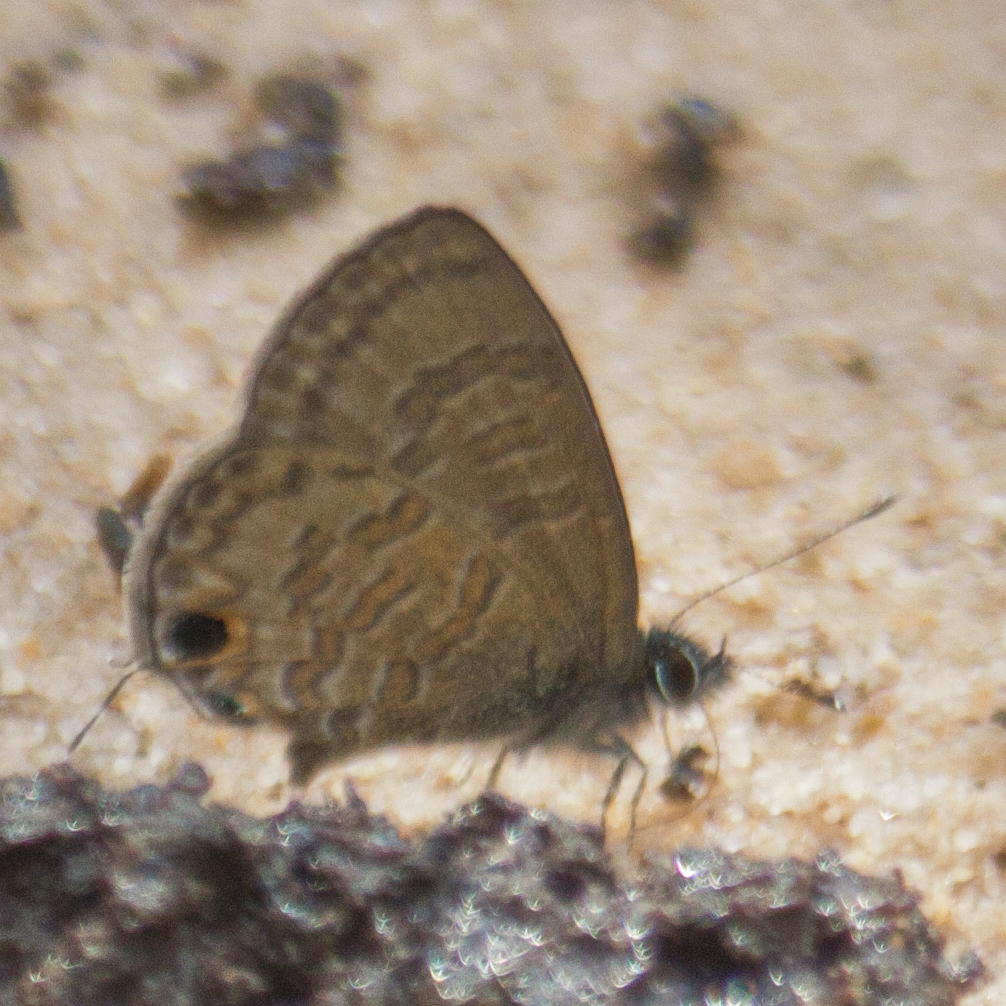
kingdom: Animalia
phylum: Arthropoda
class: Insecta
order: Lepidoptera
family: Lycaenidae
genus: Prosotas
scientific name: Prosotas nora
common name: Common line blue
